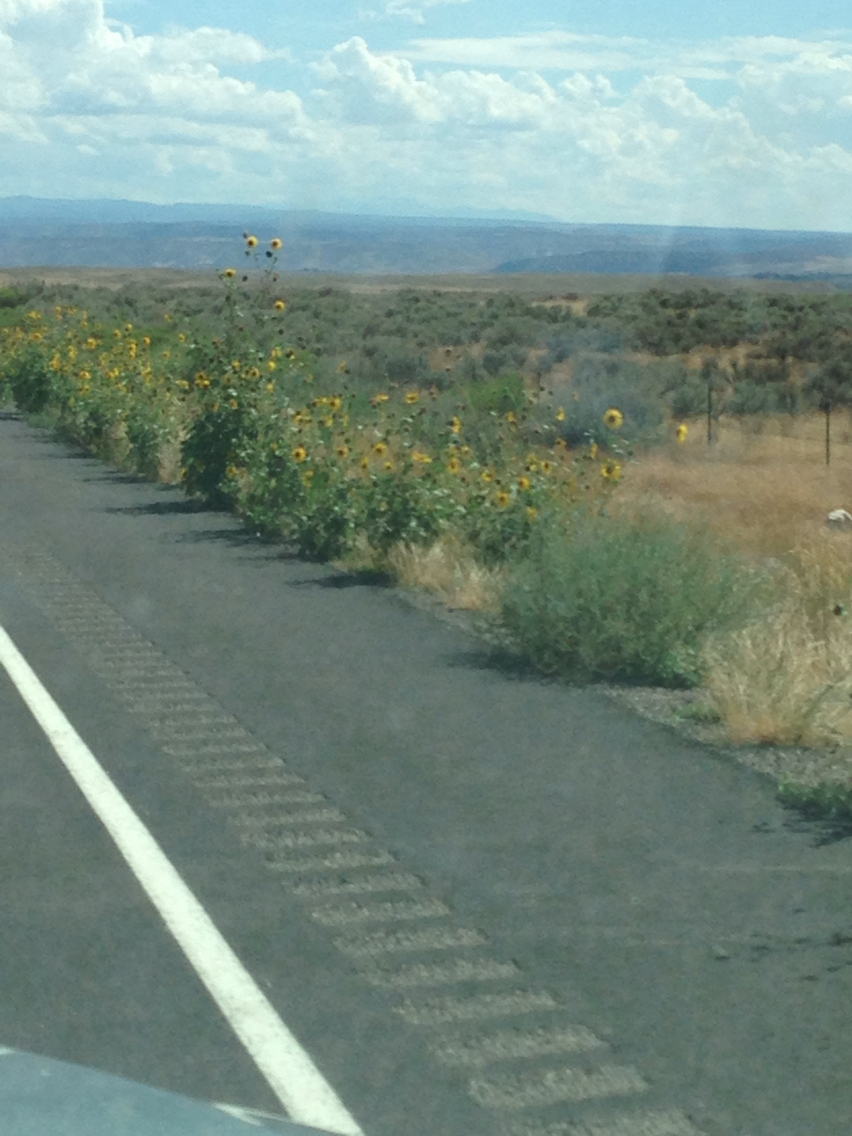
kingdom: Plantae
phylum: Tracheophyta
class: Magnoliopsida
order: Asterales
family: Asteraceae
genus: Helianthus
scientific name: Helianthus annuus
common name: Sunflower
